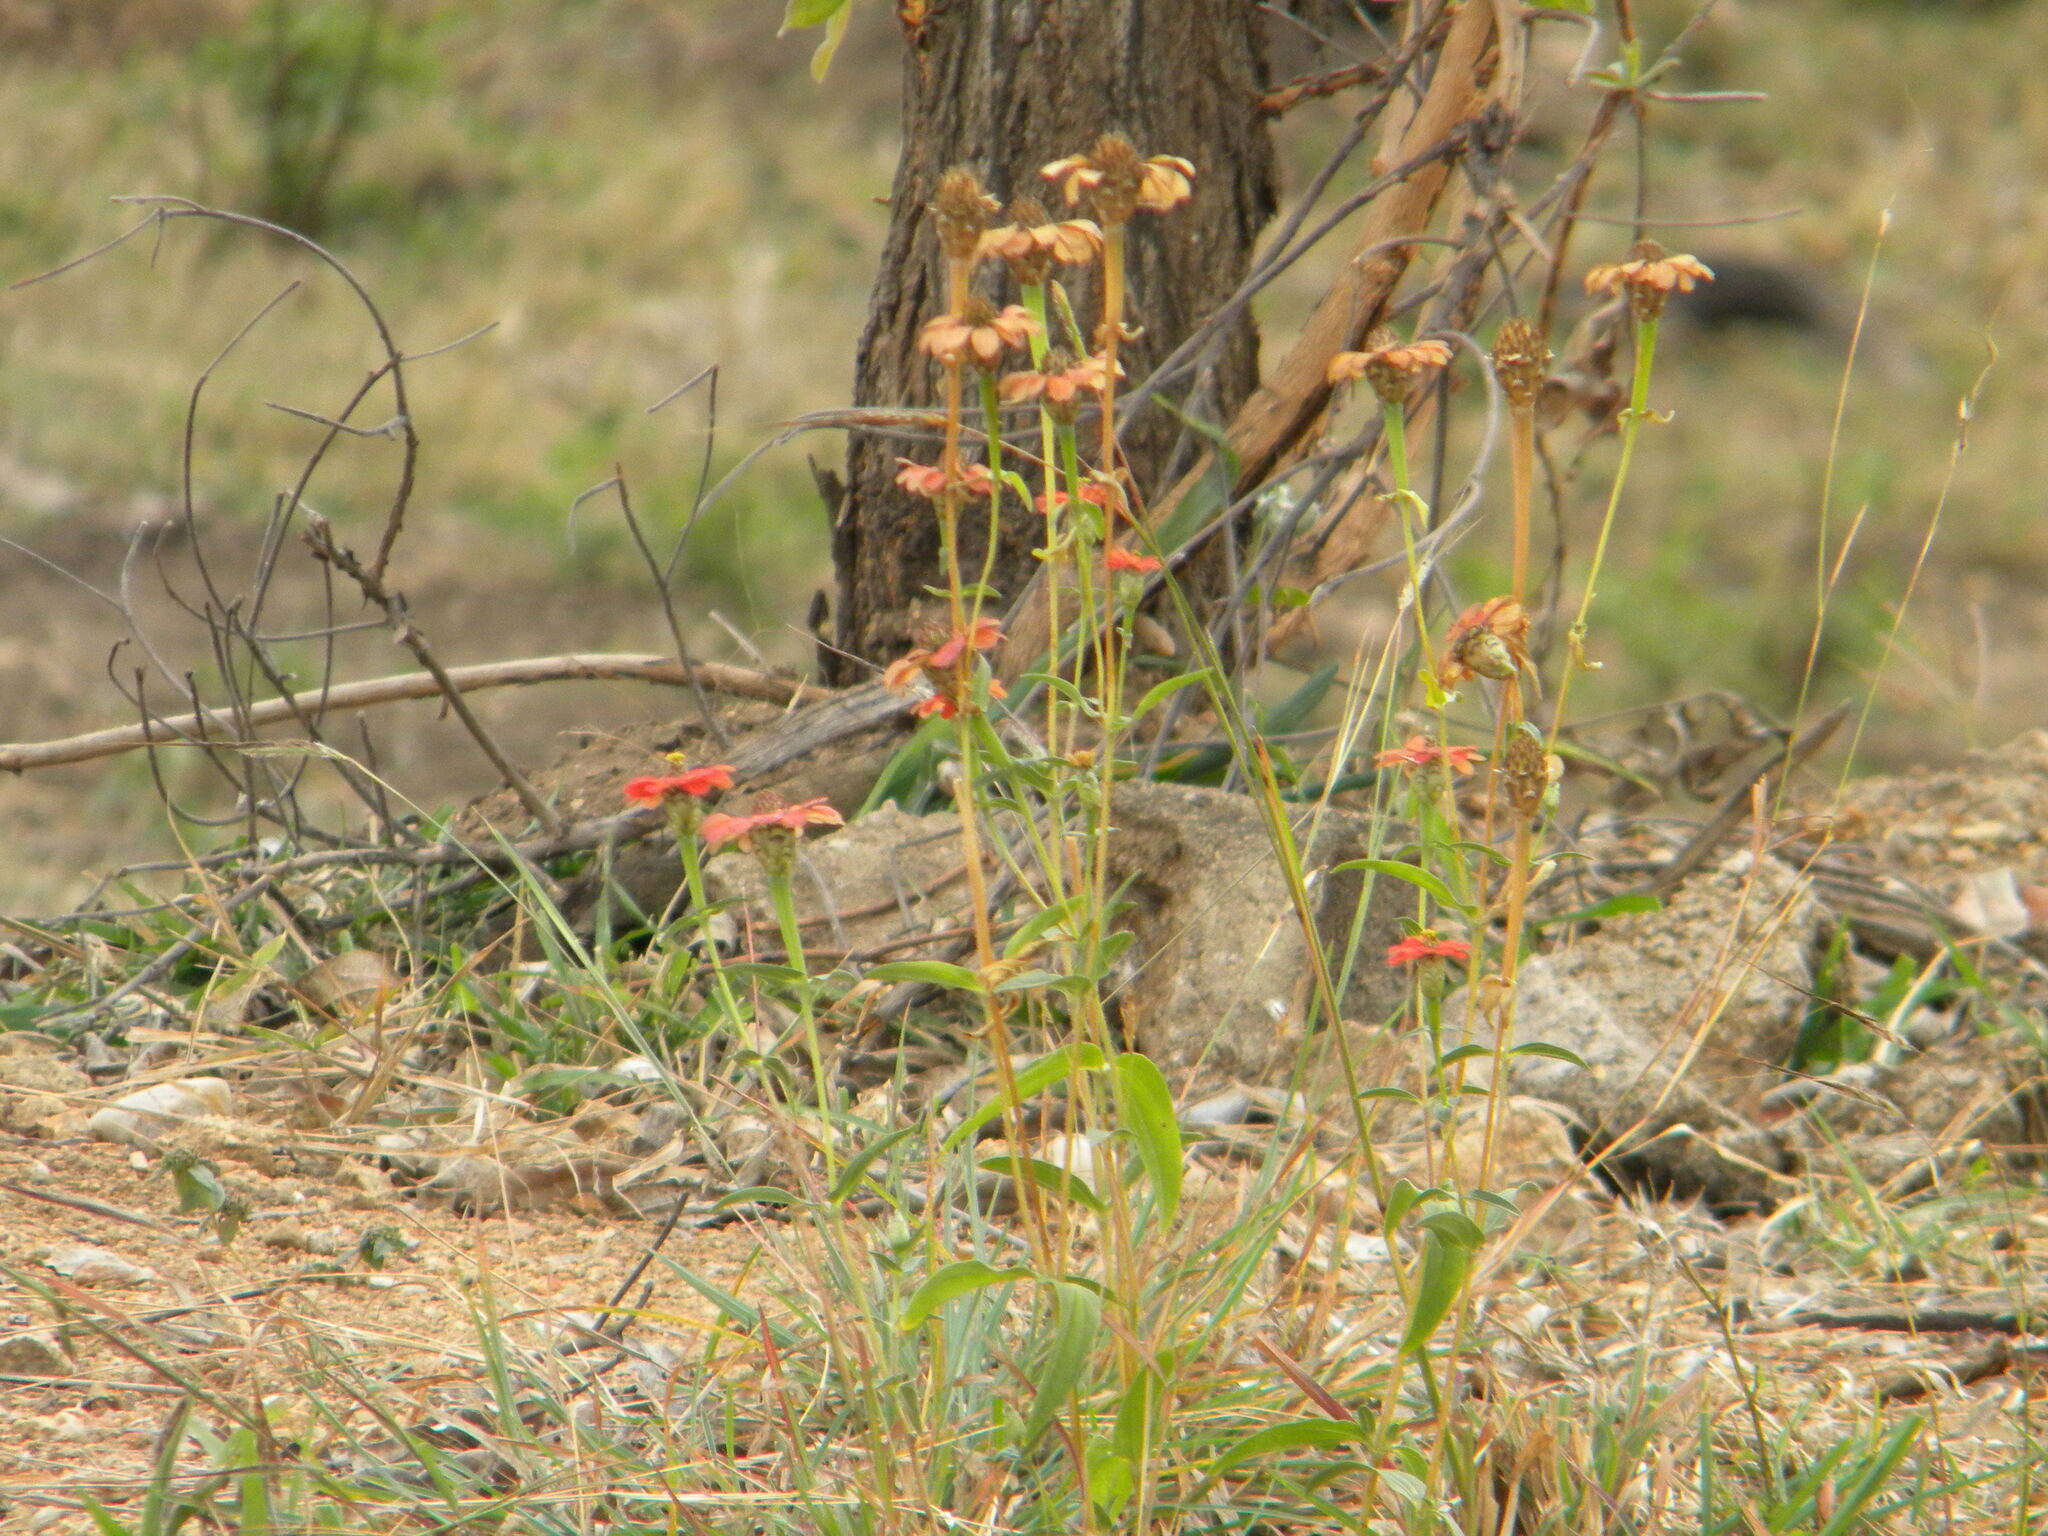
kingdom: Plantae
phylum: Tracheophyta
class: Magnoliopsida
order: Asterales
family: Asteraceae
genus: Zinnia
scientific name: Zinnia peruviana
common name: Peruvian zinnia
